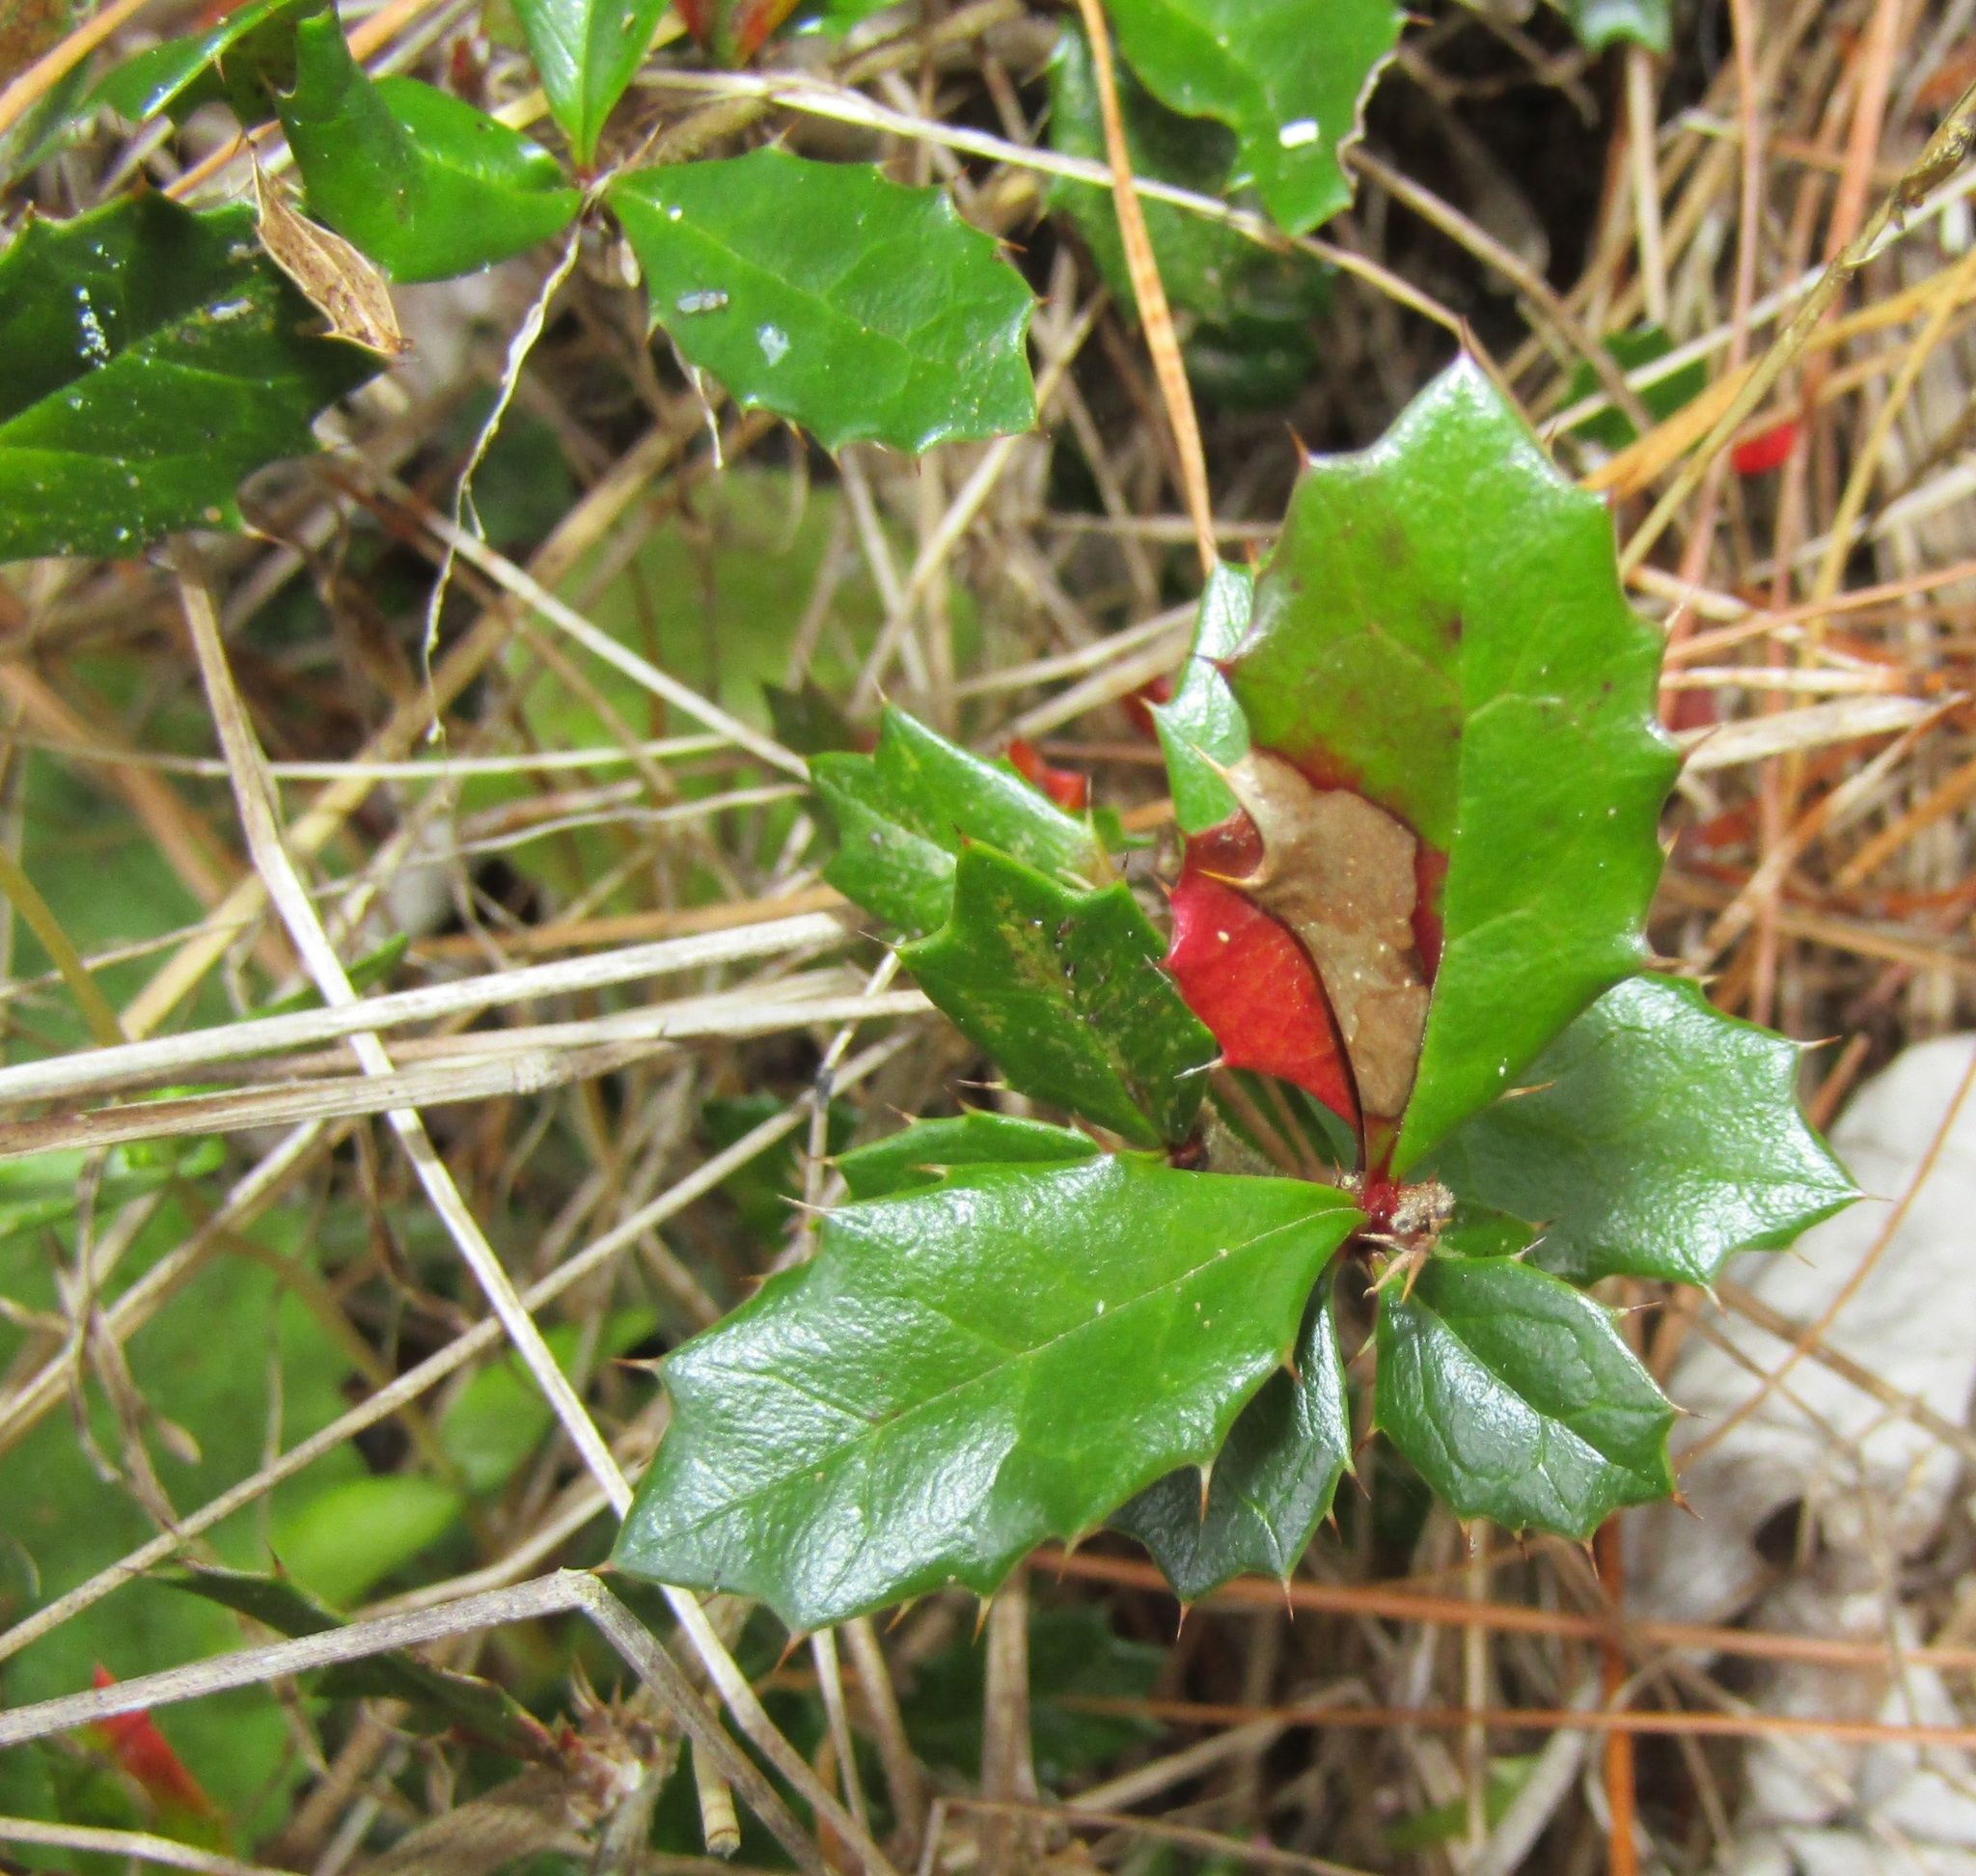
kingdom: Plantae
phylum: Tracheophyta
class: Magnoliopsida
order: Ranunculales
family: Berberidaceae
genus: Berberis
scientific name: Berberis darwinii
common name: Darwin's barberry
